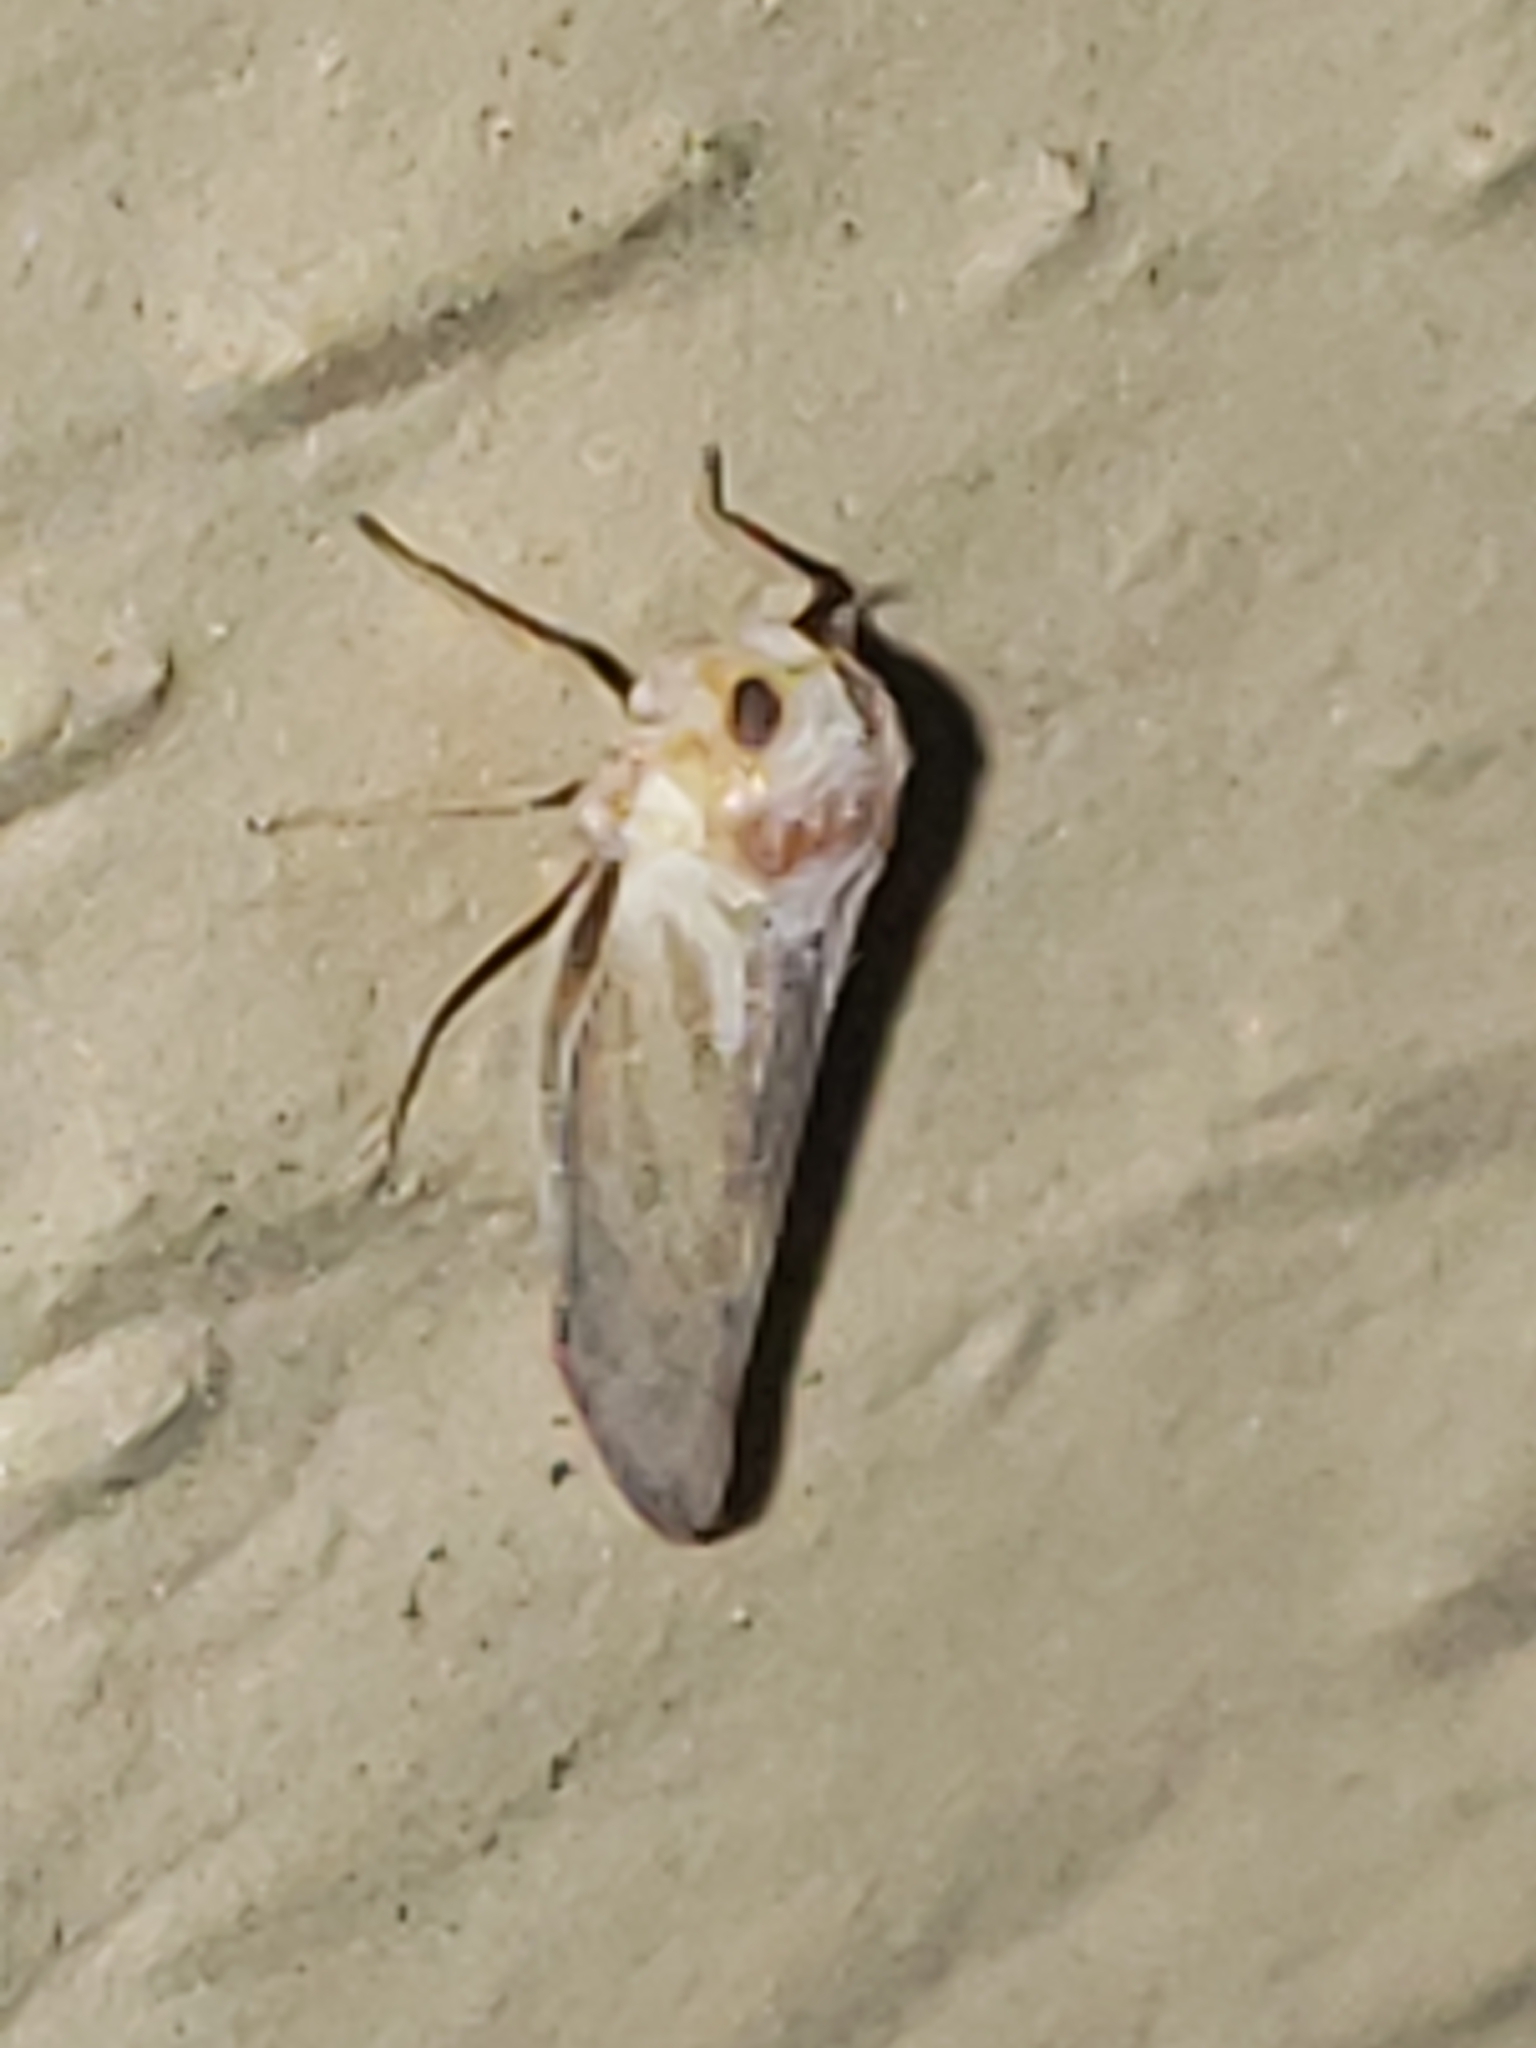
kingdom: Animalia
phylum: Arthropoda
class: Insecta
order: Hemiptera
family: Derbidae
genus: Omolicna
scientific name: Omolicna uhleri
